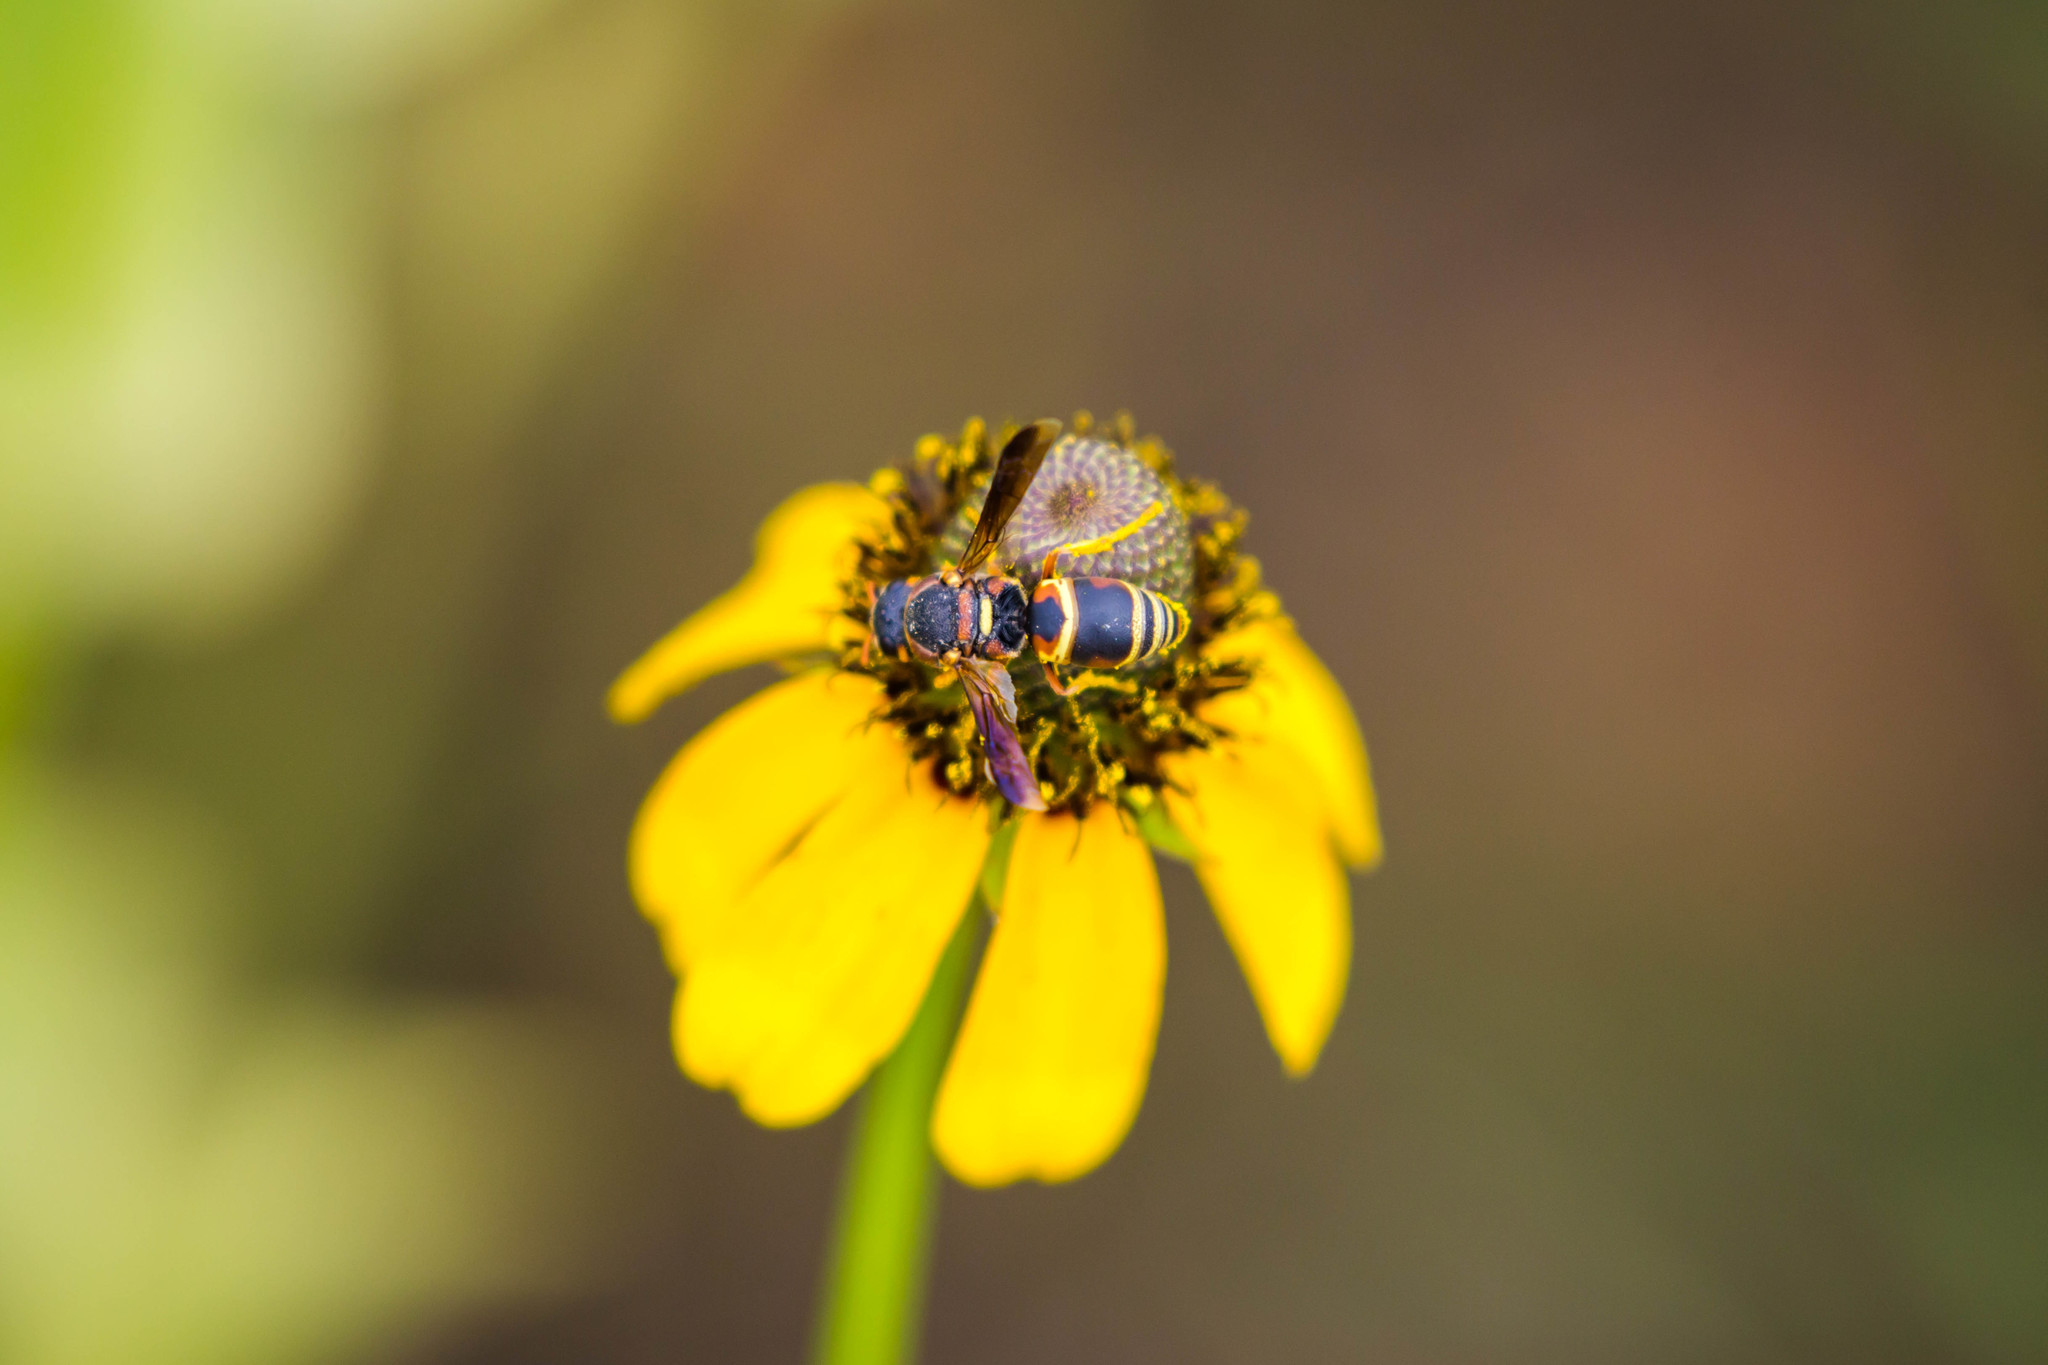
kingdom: Animalia
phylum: Arthropoda
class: Insecta
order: Hymenoptera
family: Eumenidae
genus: Euodynerus
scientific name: Euodynerus hidalgo
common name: Wasp
